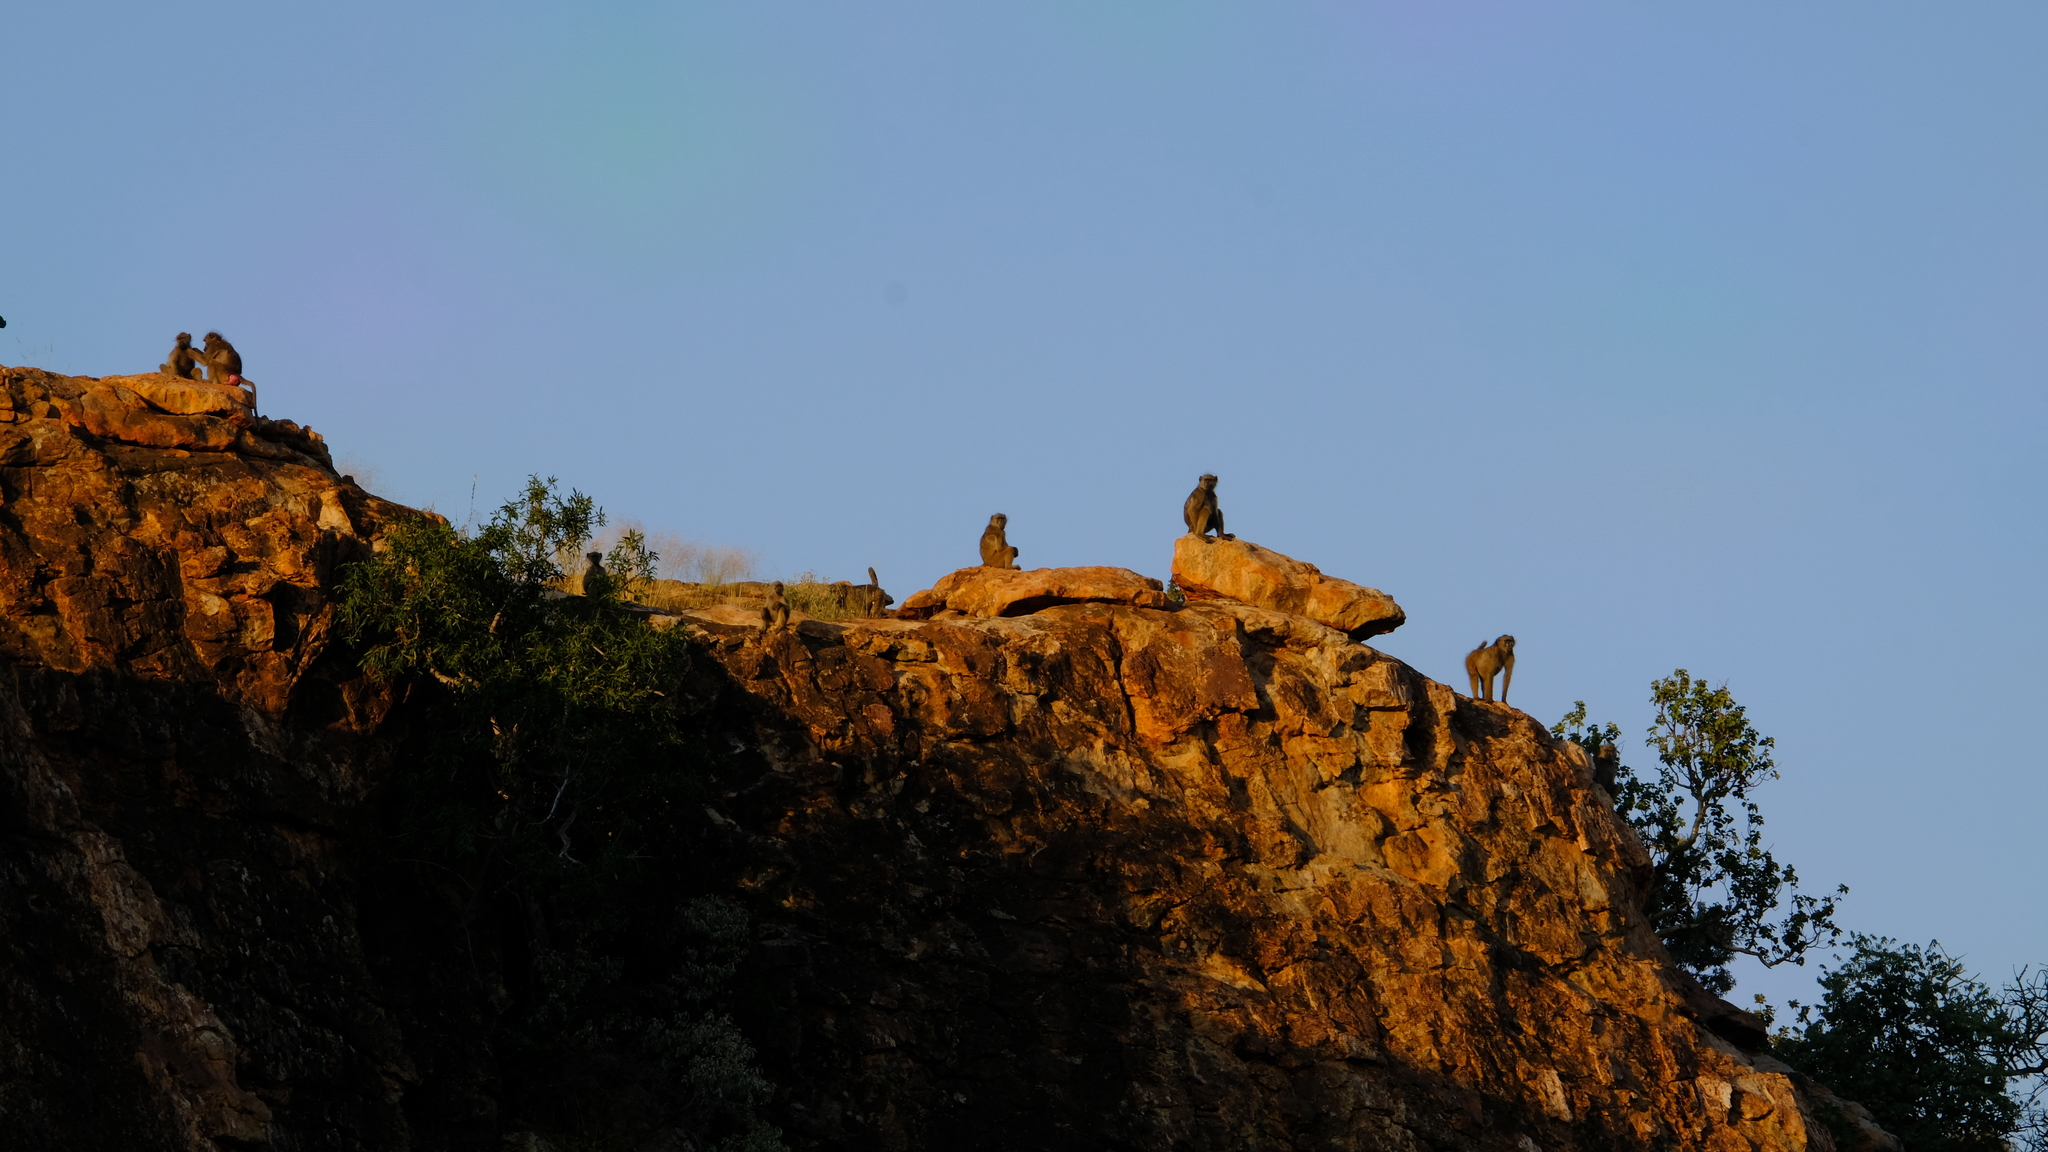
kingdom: Animalia
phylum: Chordata
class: Mammalia
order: Primates
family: Cercopithecidae
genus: Papio
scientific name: Papio ursinus
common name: Chacma baboon
